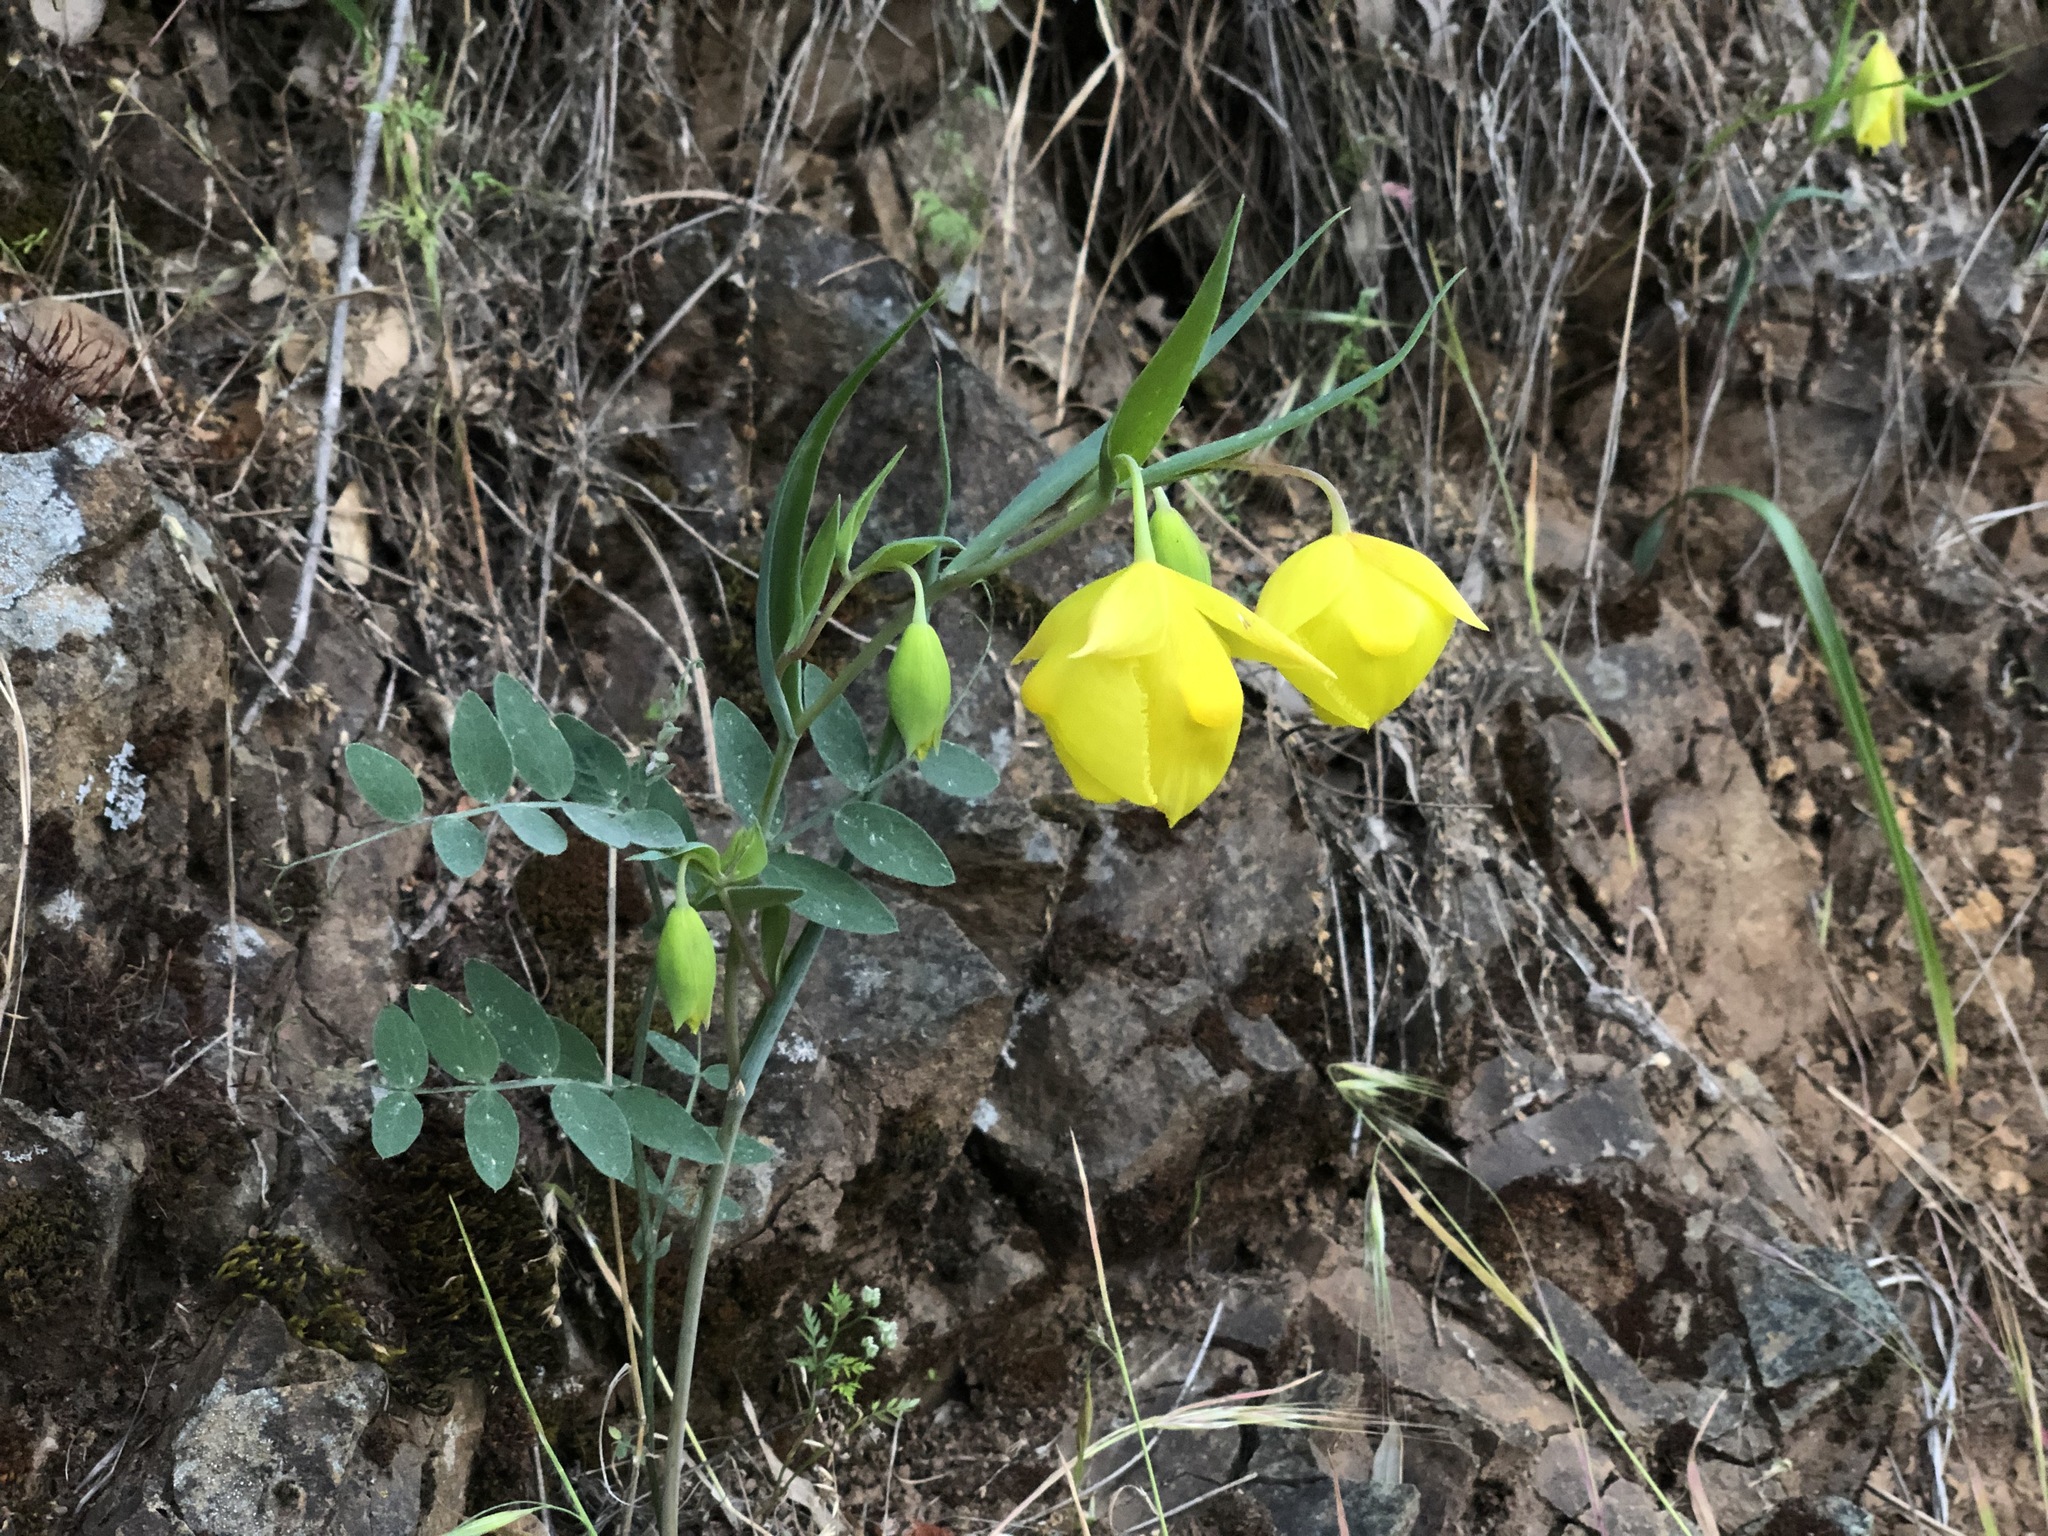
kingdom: Plantae
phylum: Tracheophyta
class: Liliopsida
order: Liliales
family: Liliaceae
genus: Calochortus
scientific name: Calochortus pulchellus
